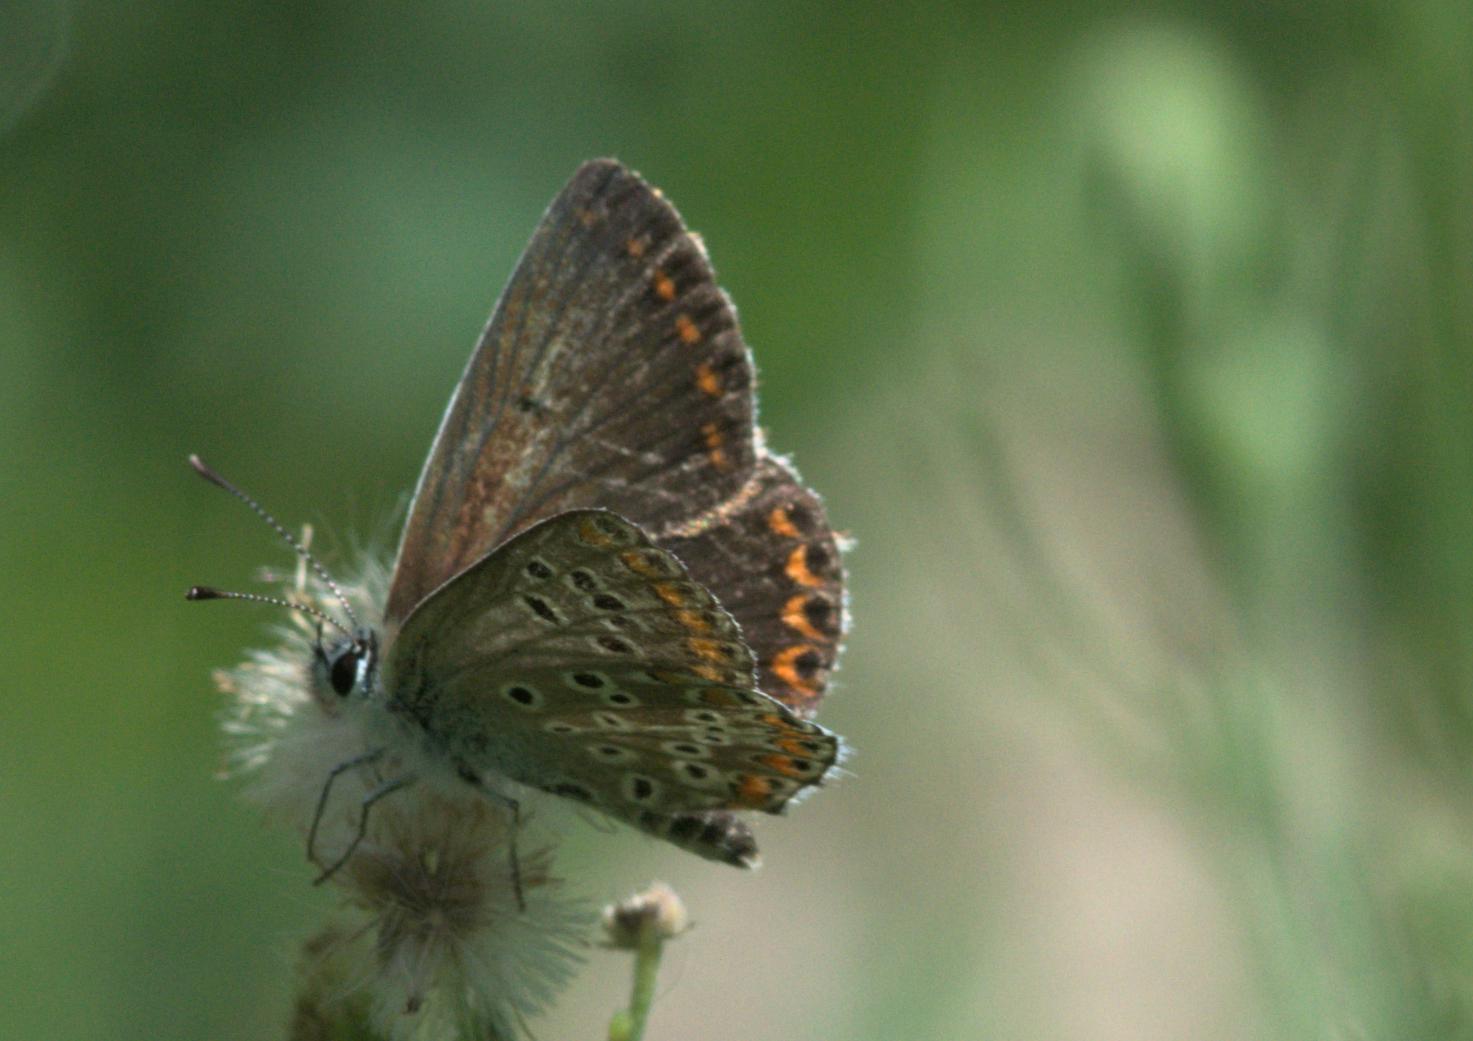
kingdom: Animalia
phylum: Arthropoda
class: Insecta
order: Lepidoptera
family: Lycaenidae
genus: Aricia
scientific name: Aricia agestis
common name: Brown argus
